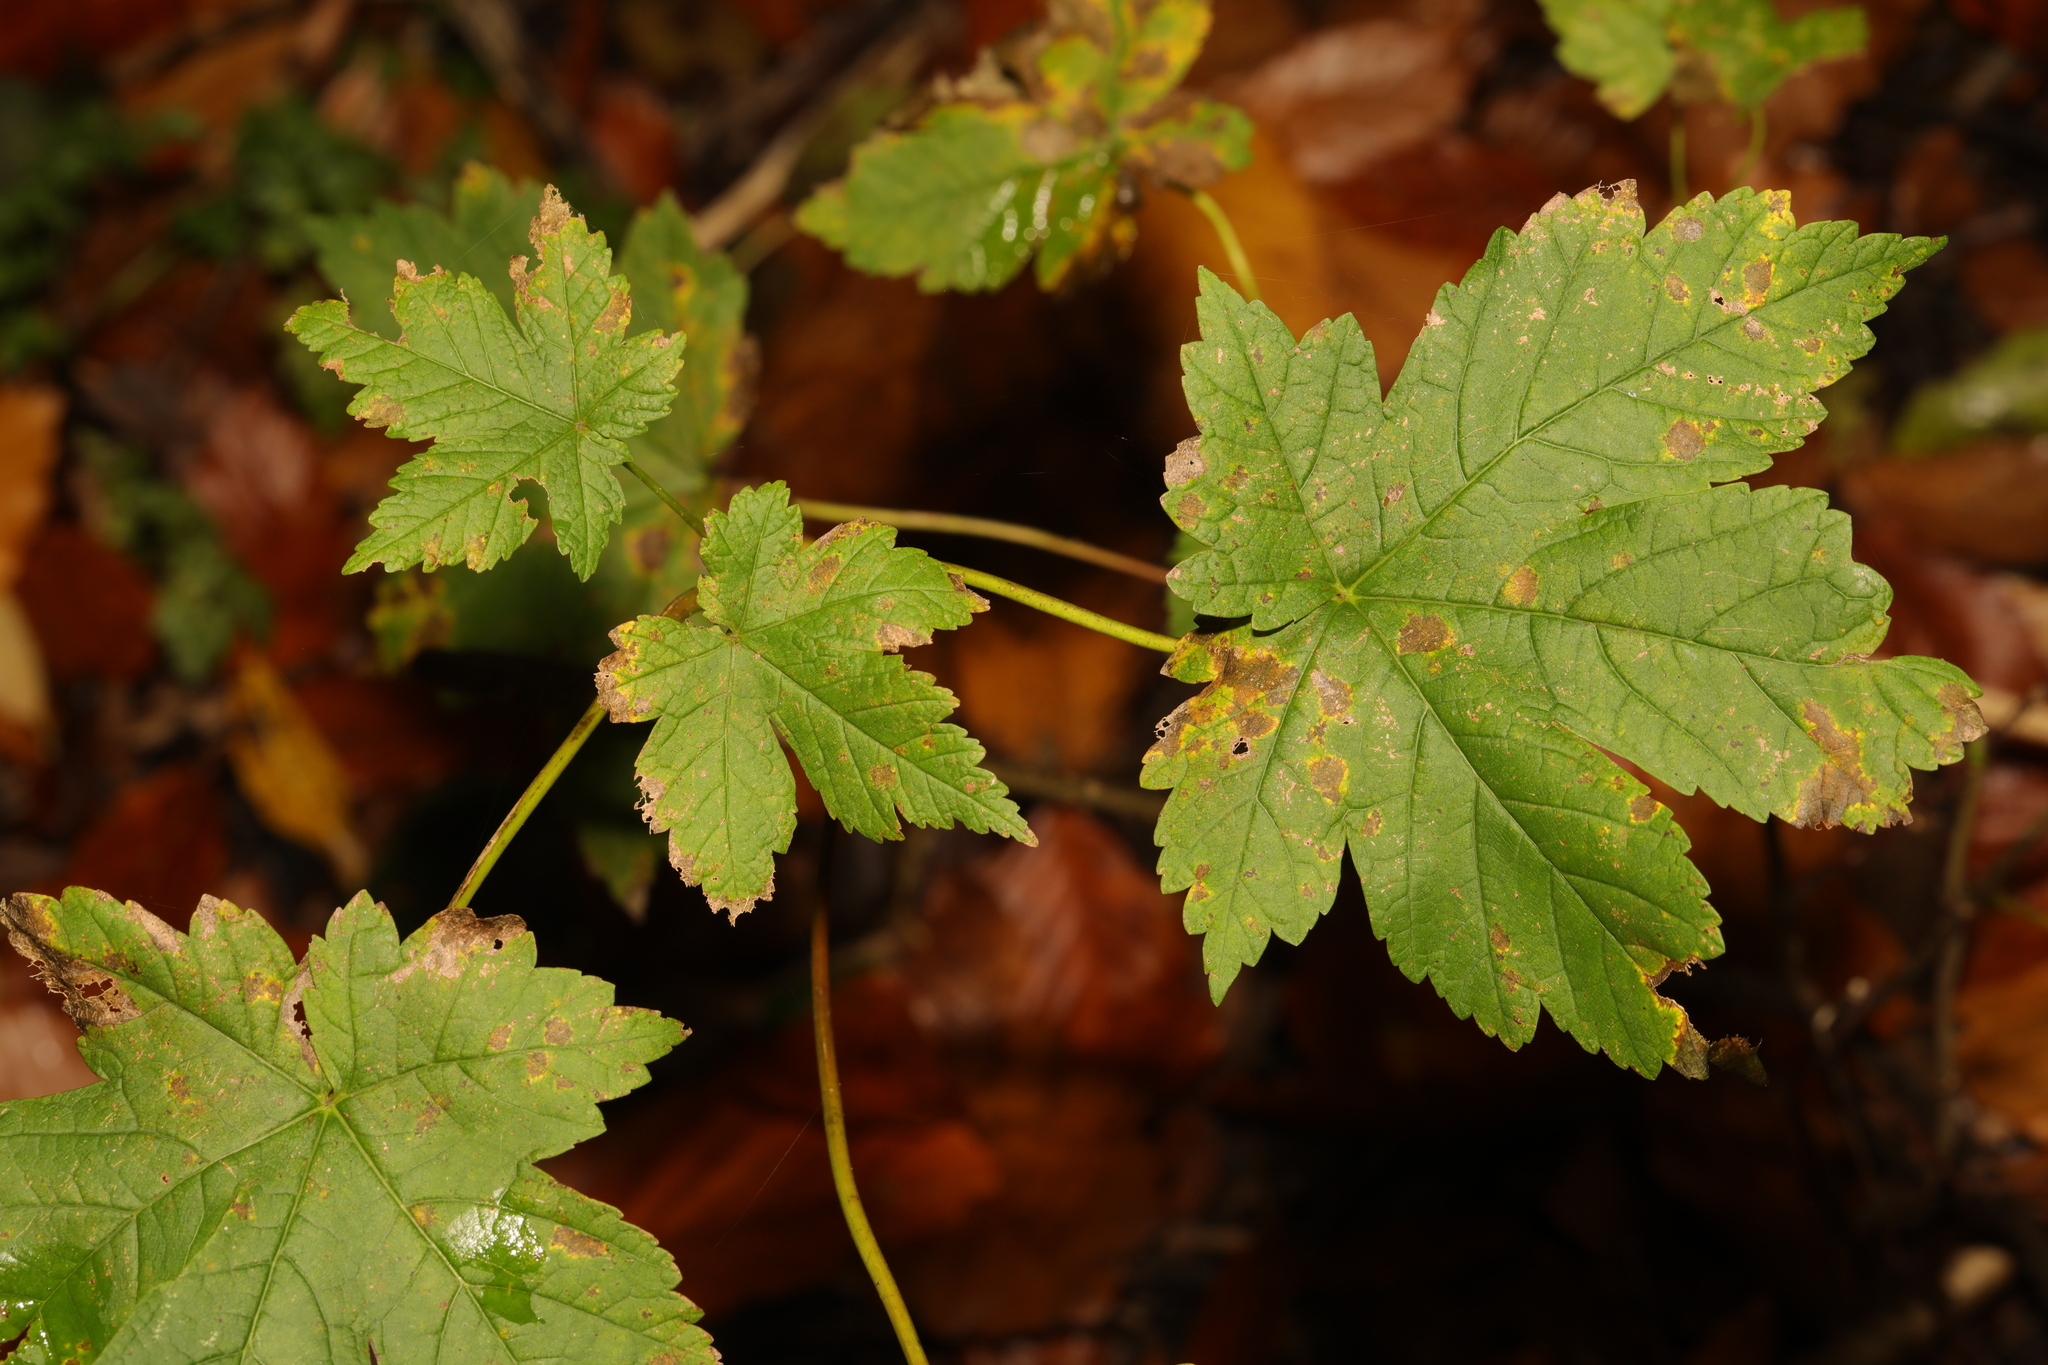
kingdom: Plantae
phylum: Tracheophyta
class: Magnoliopsida
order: Sapindales
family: Sapindaceae
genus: Acer
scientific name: Acer pseudoplatanus
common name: Sycamore
